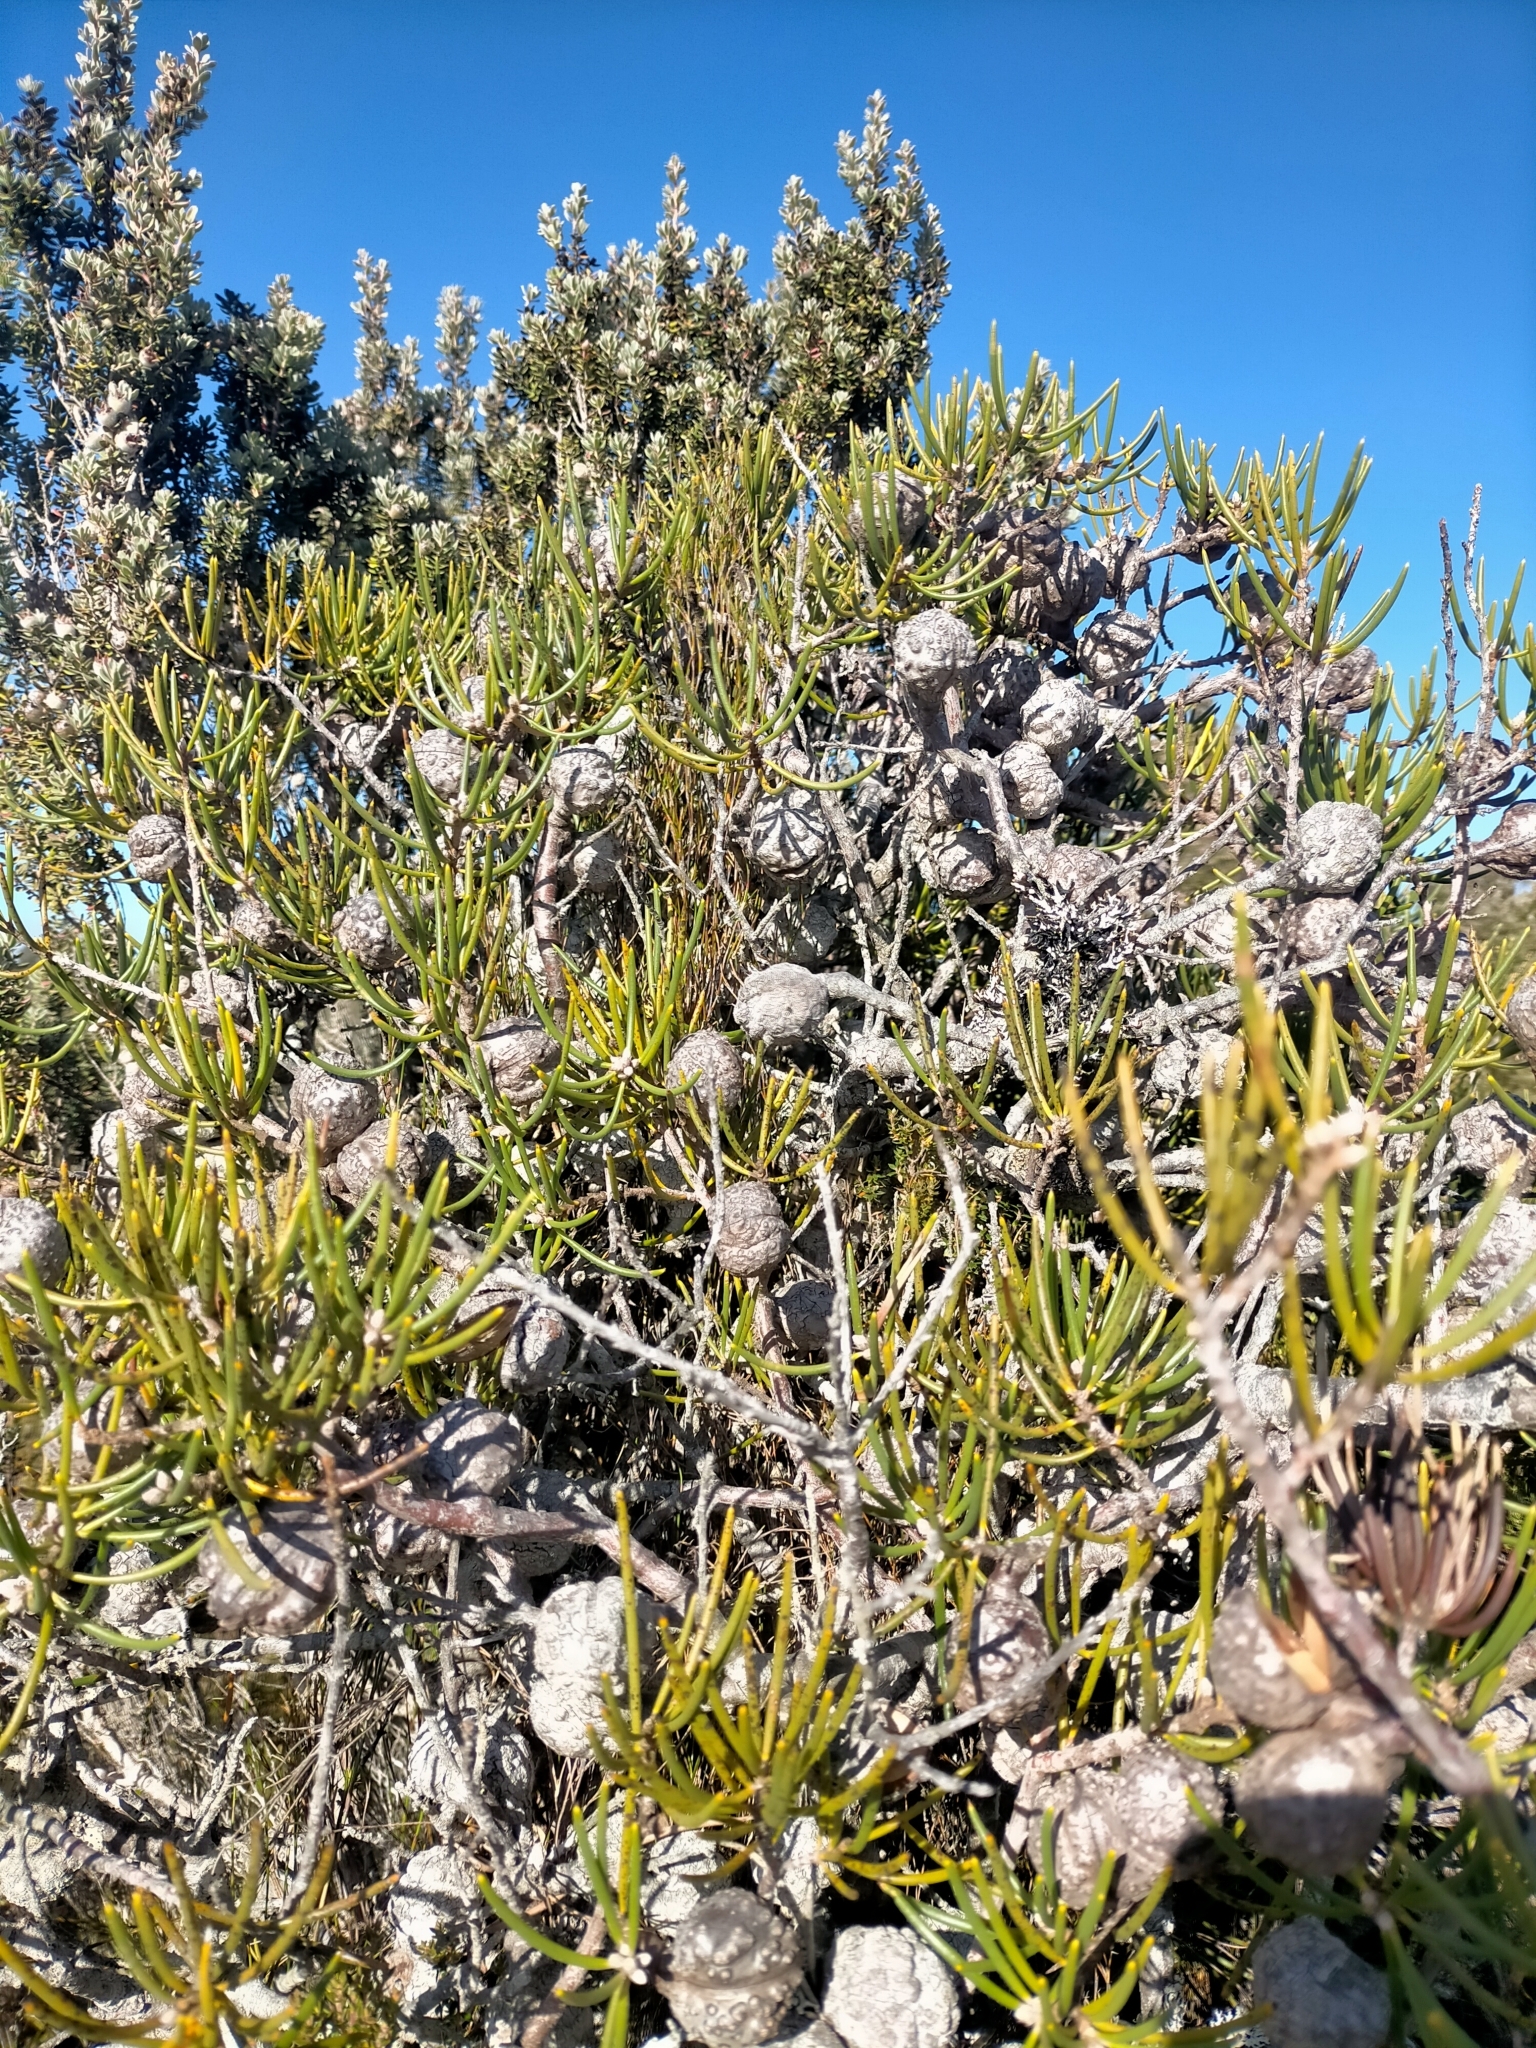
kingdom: Plantae
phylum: Tracheophyta
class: Magnoliopsida
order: Proteales
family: Proteaceae
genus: Hakea
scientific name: Hakea lissosperma
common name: Mountain needlewood
